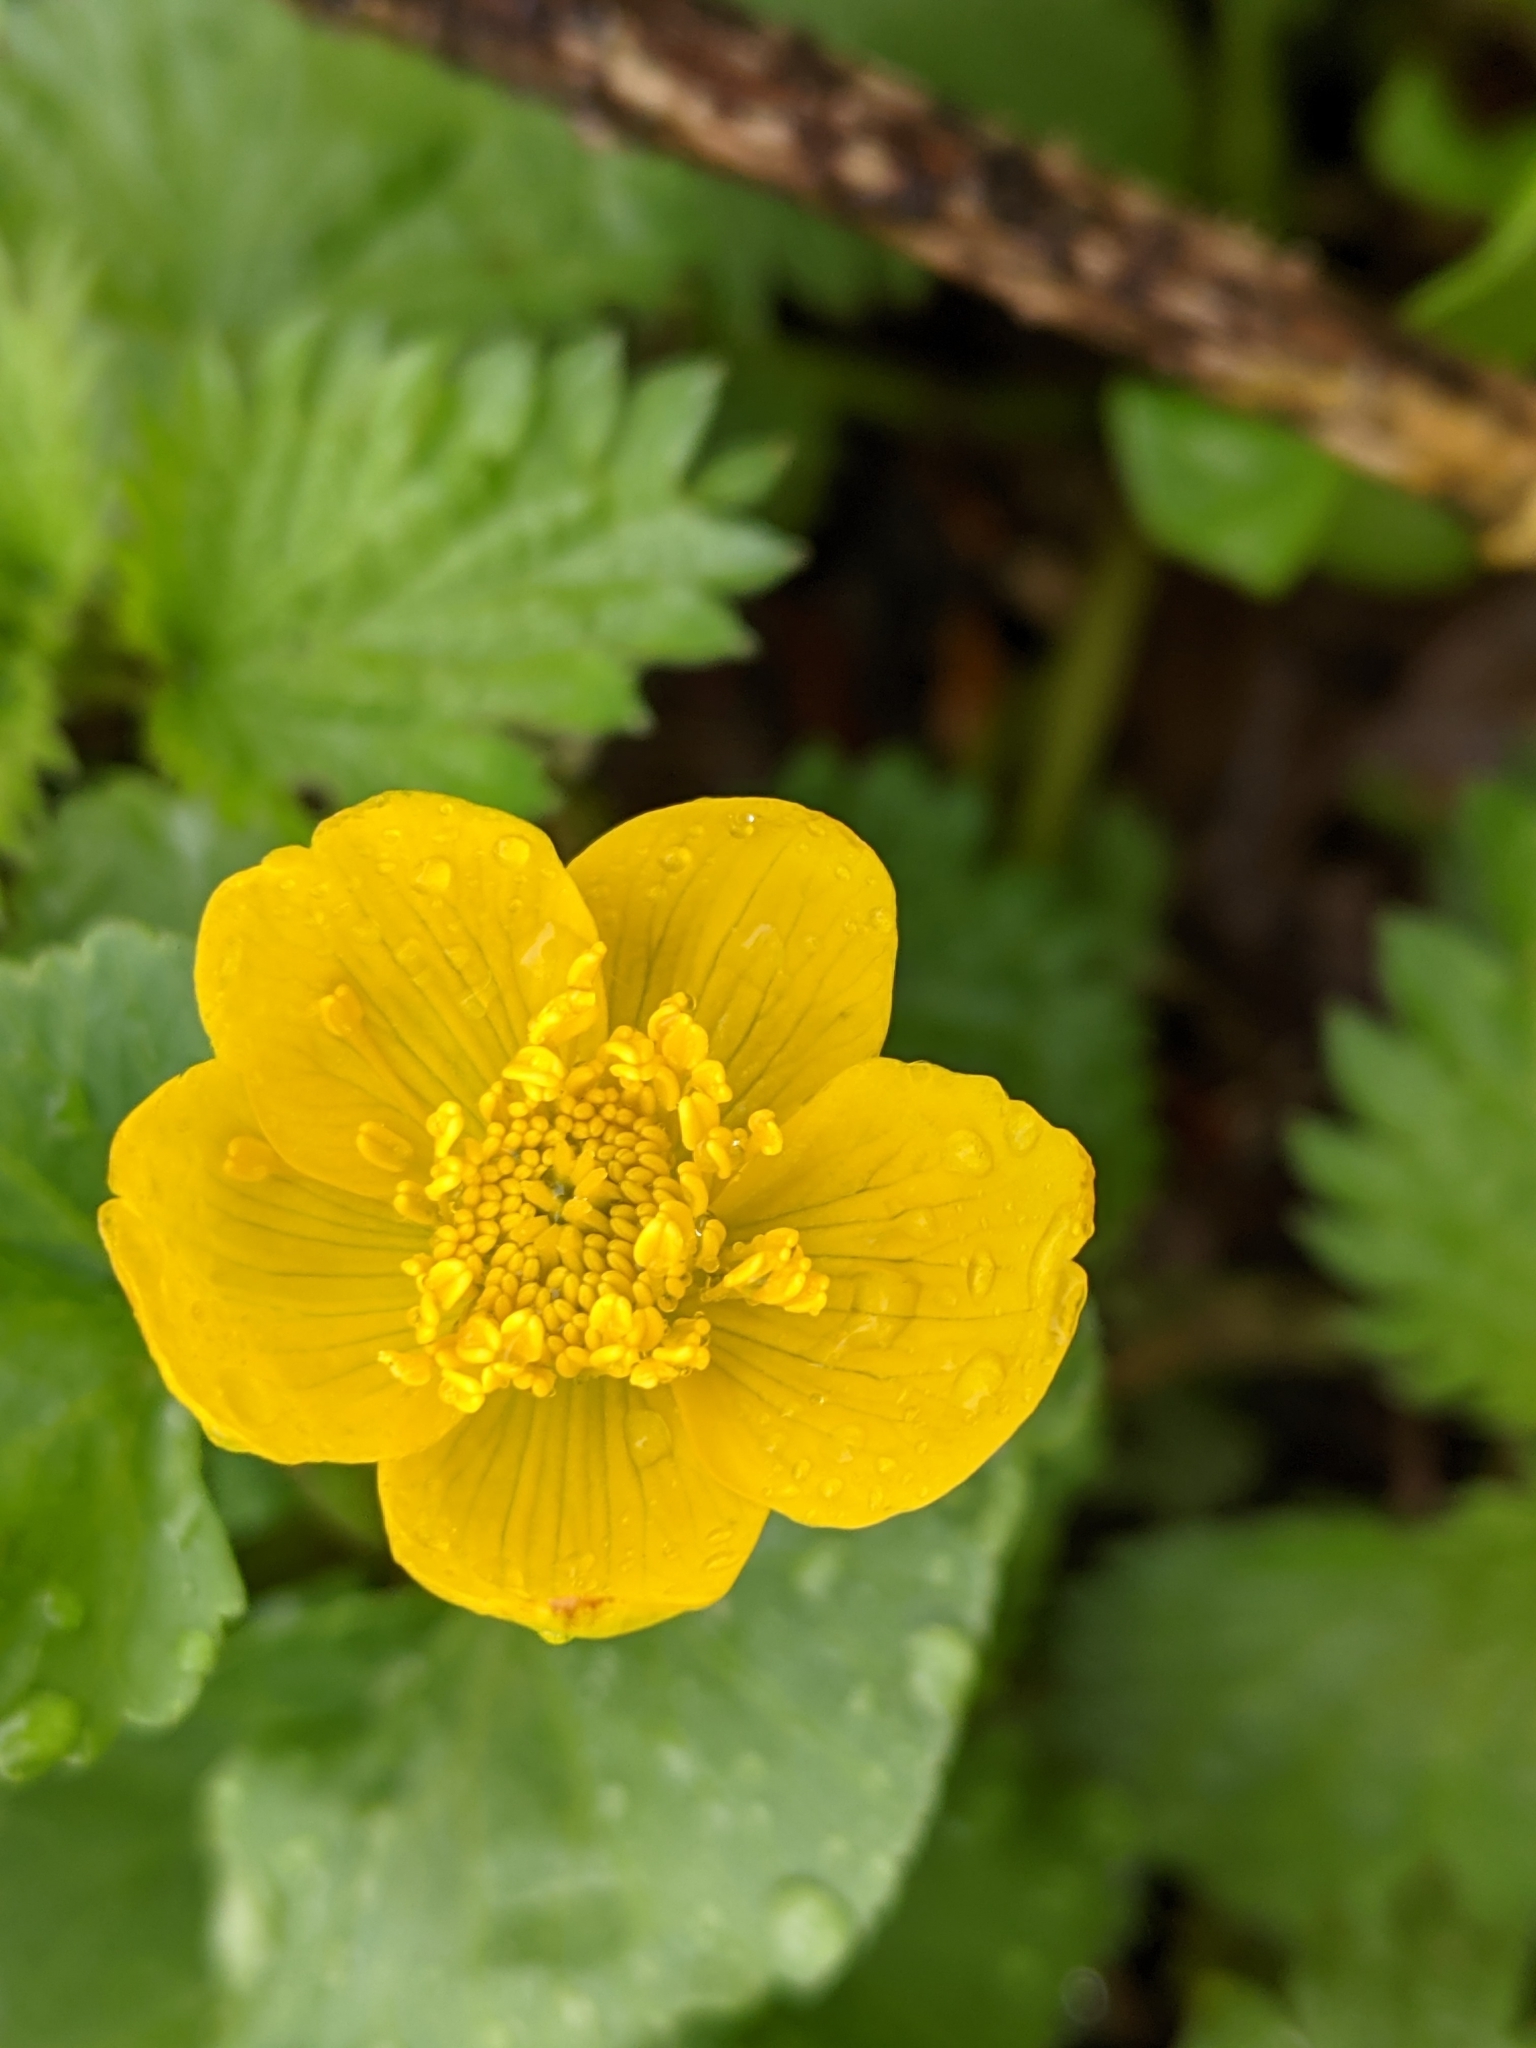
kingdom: Plantae
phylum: Tracheophyta
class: Magnoliopsida
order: Ranunculales
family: Ranunculaceae
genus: Caltha
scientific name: Caltha palustris
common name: Marsh marigold
